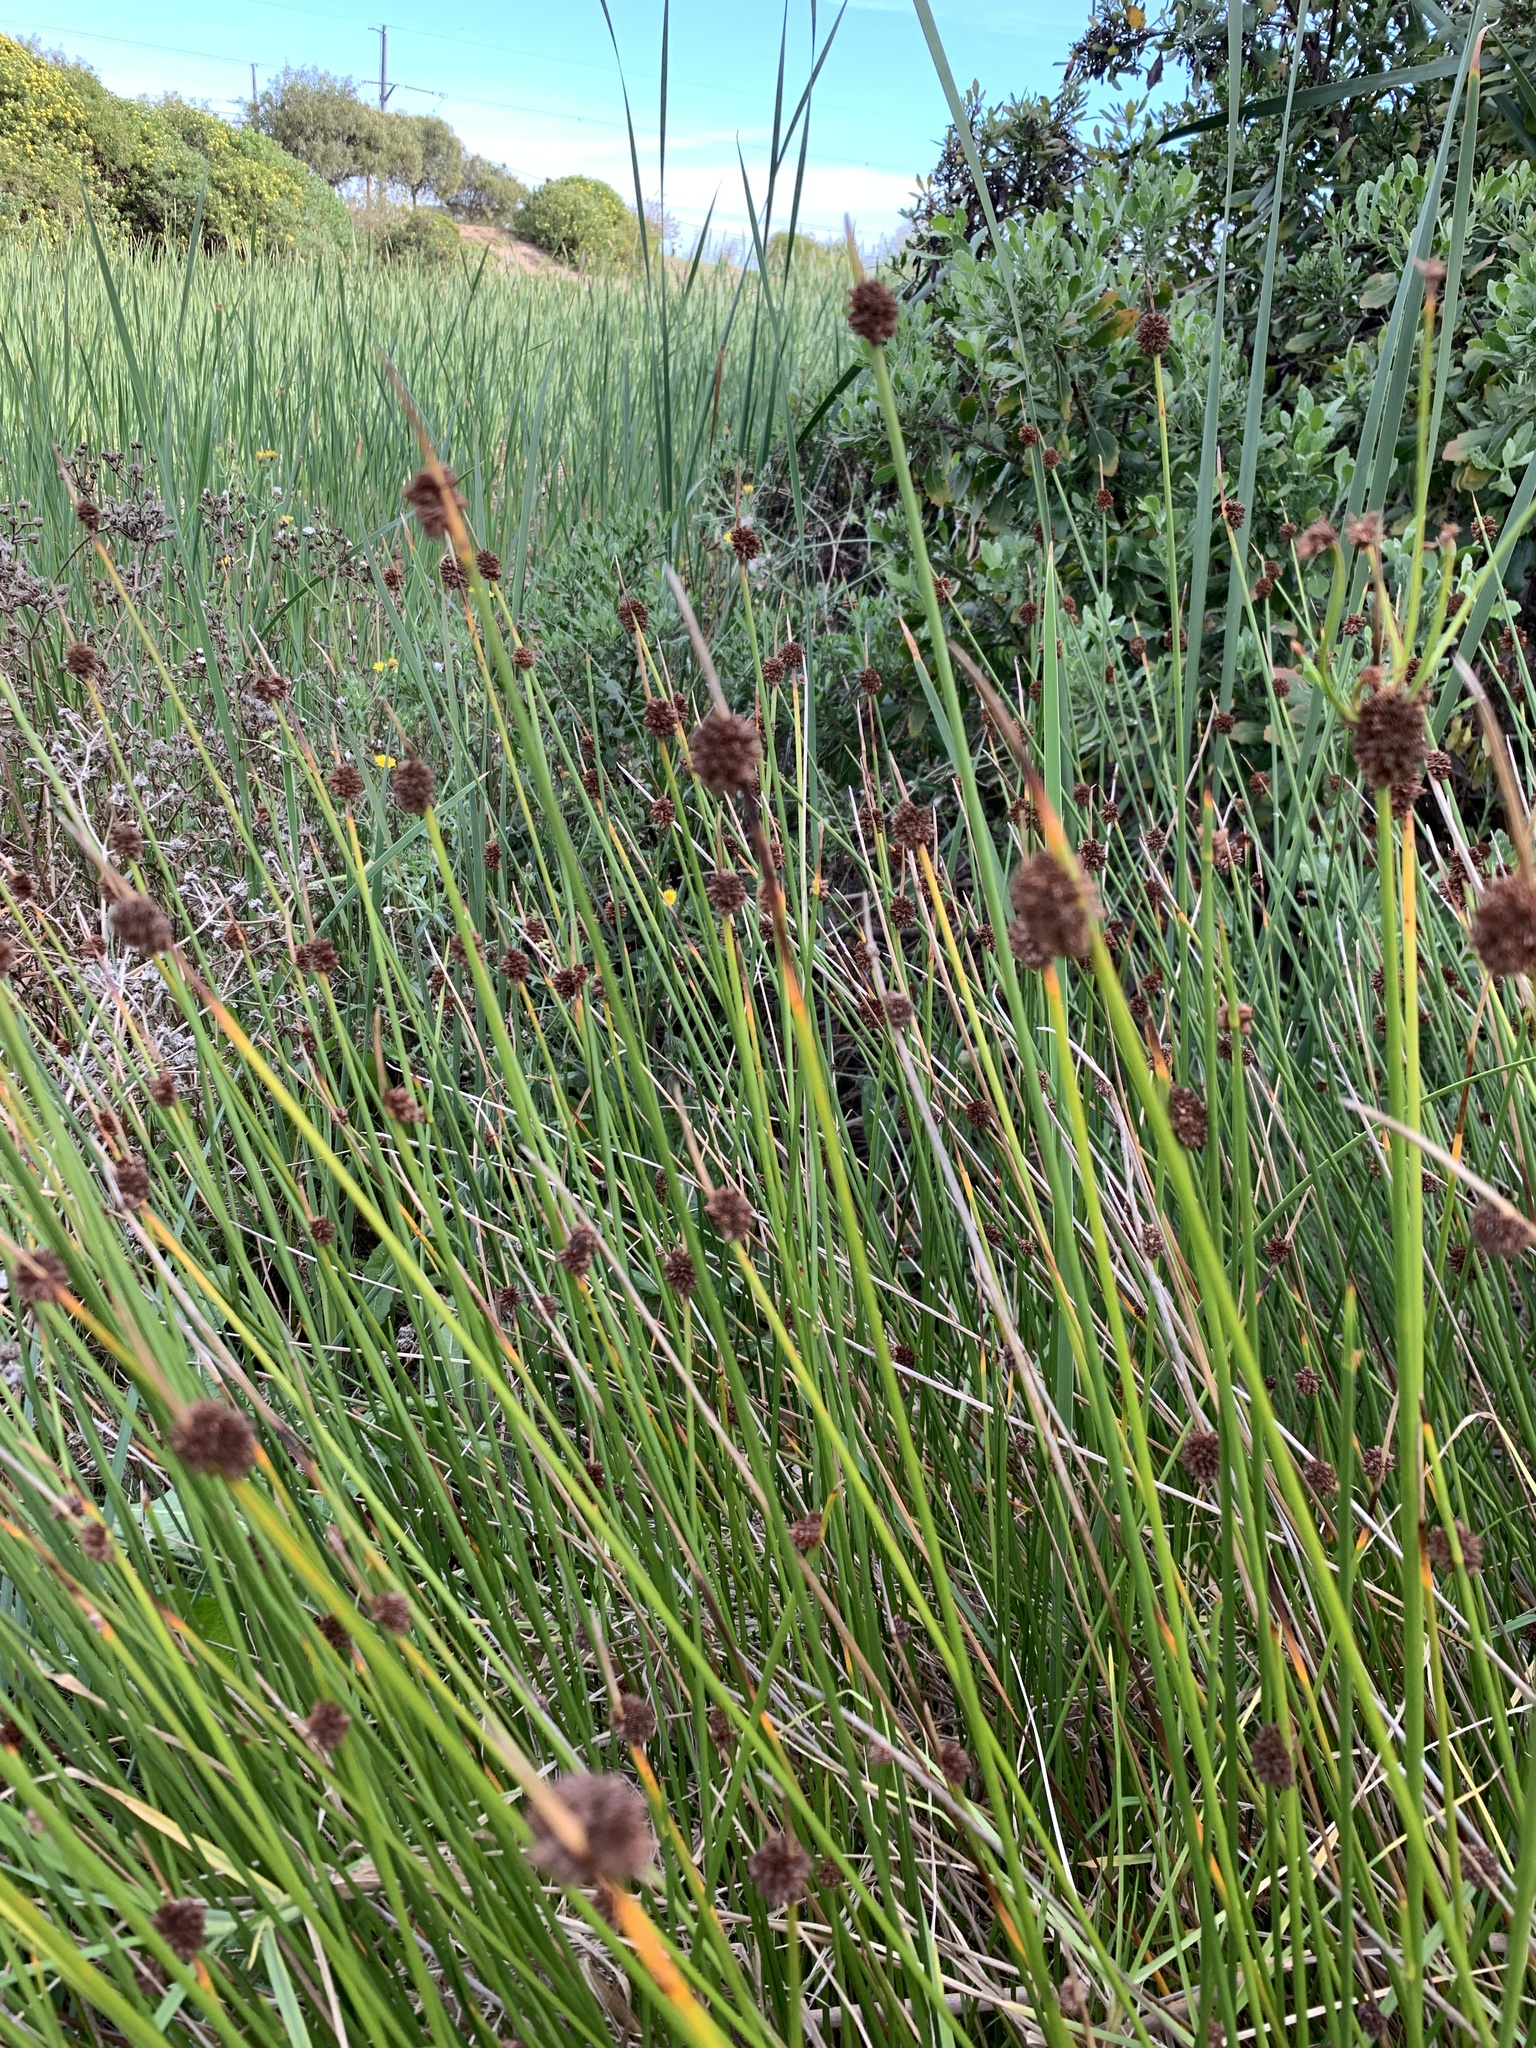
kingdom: Plantae
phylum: Tracheophyta
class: Liliopsida
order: Poales
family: Cyperaceae
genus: Ficinia
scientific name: Ficinia nodosa
